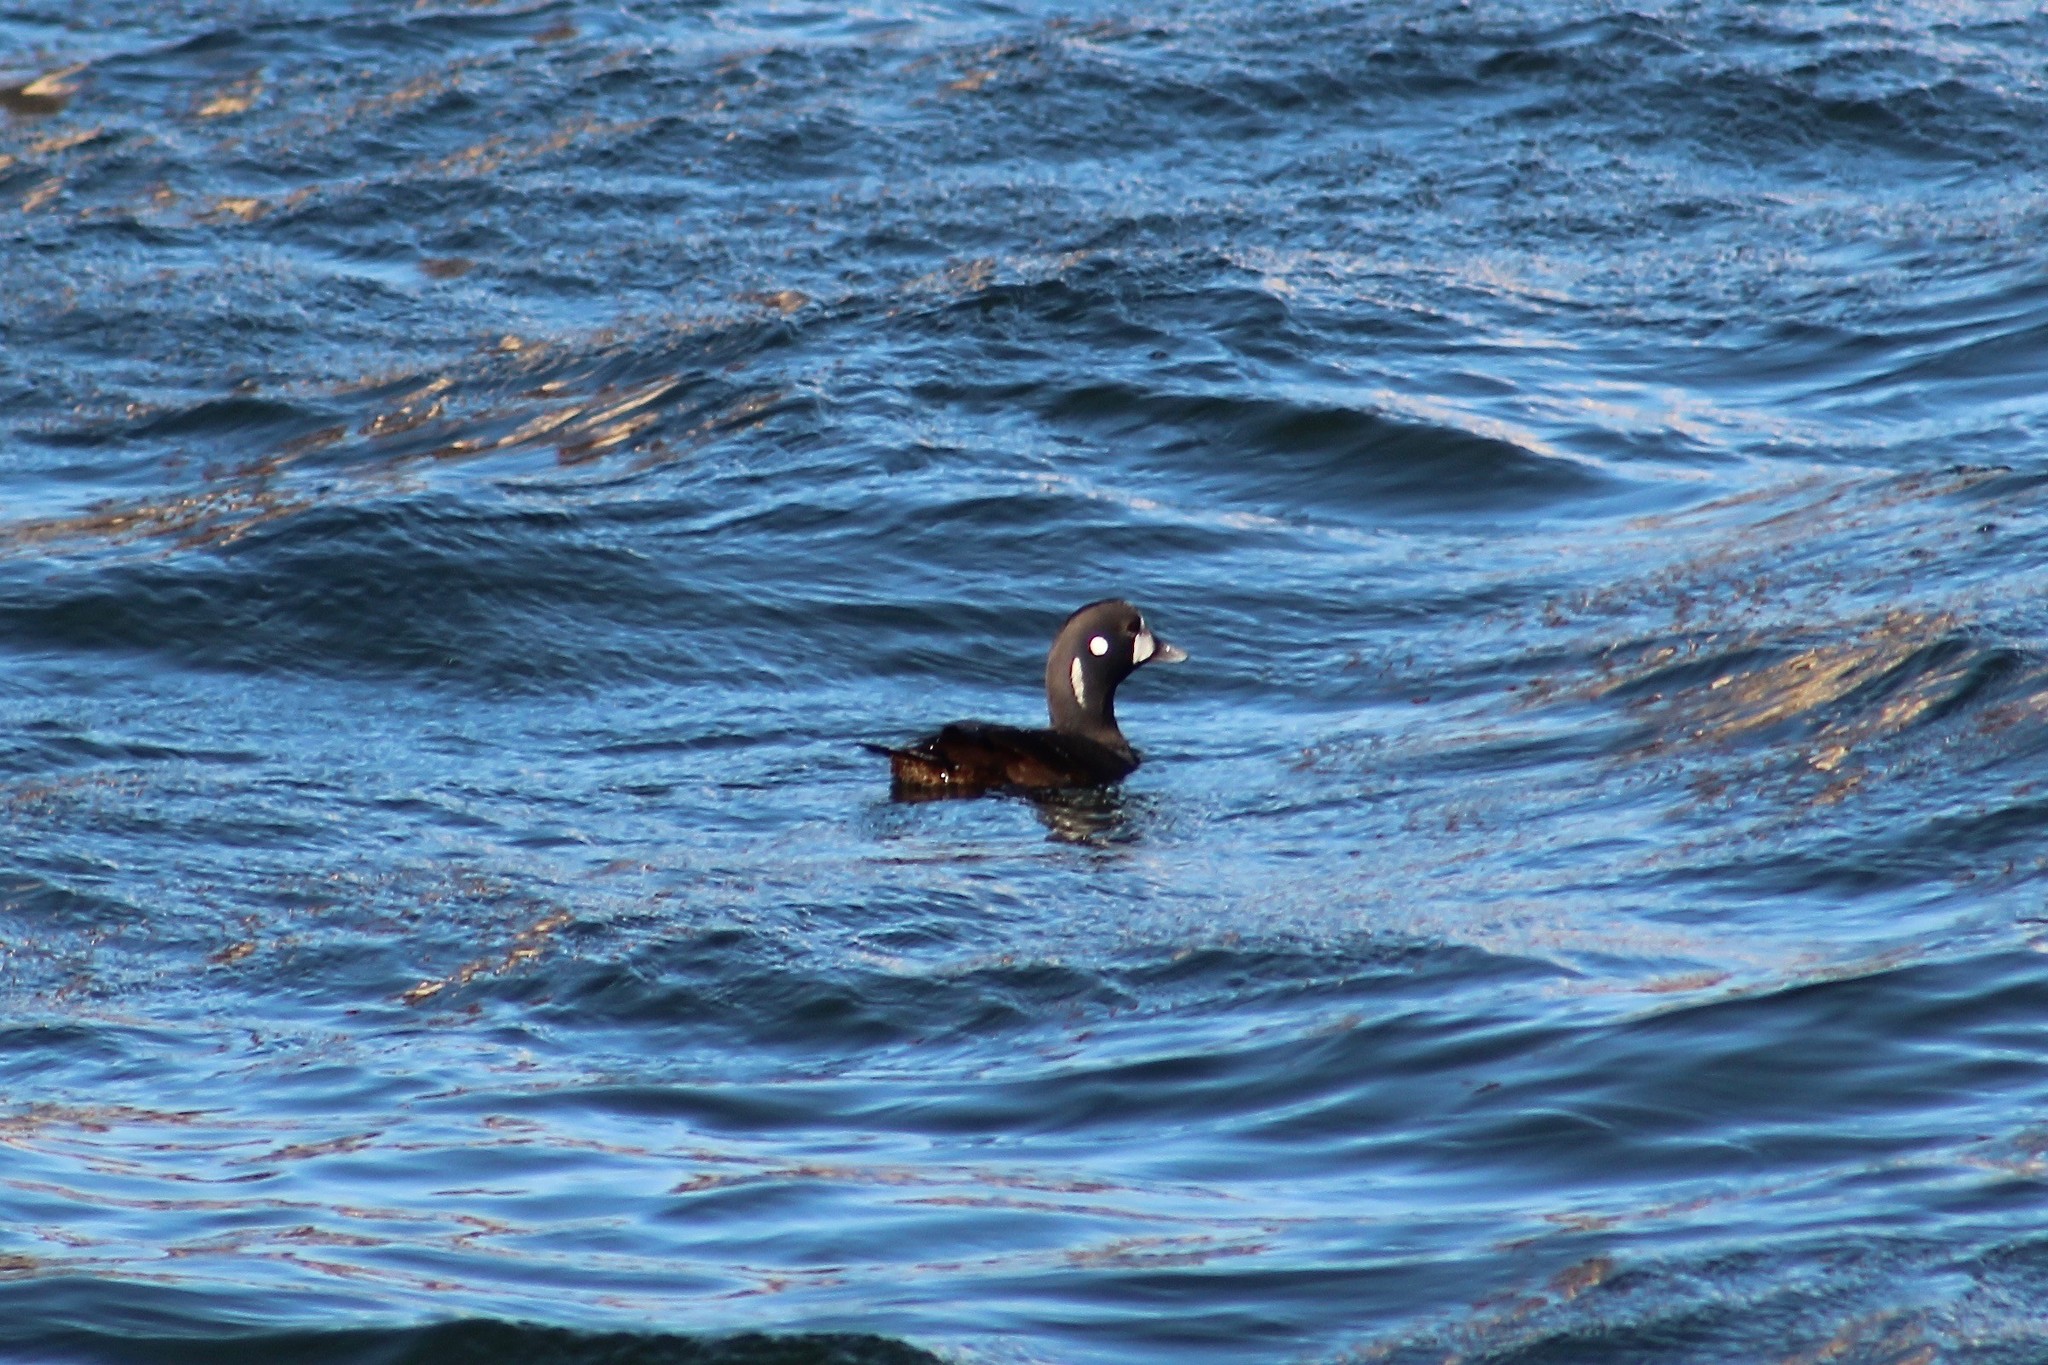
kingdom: Animalia
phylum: Chordata
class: Aves
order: Anseriformes
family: Anatidae
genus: Histrionicus
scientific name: Histrionicus histrionicus
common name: Harlequin duck
